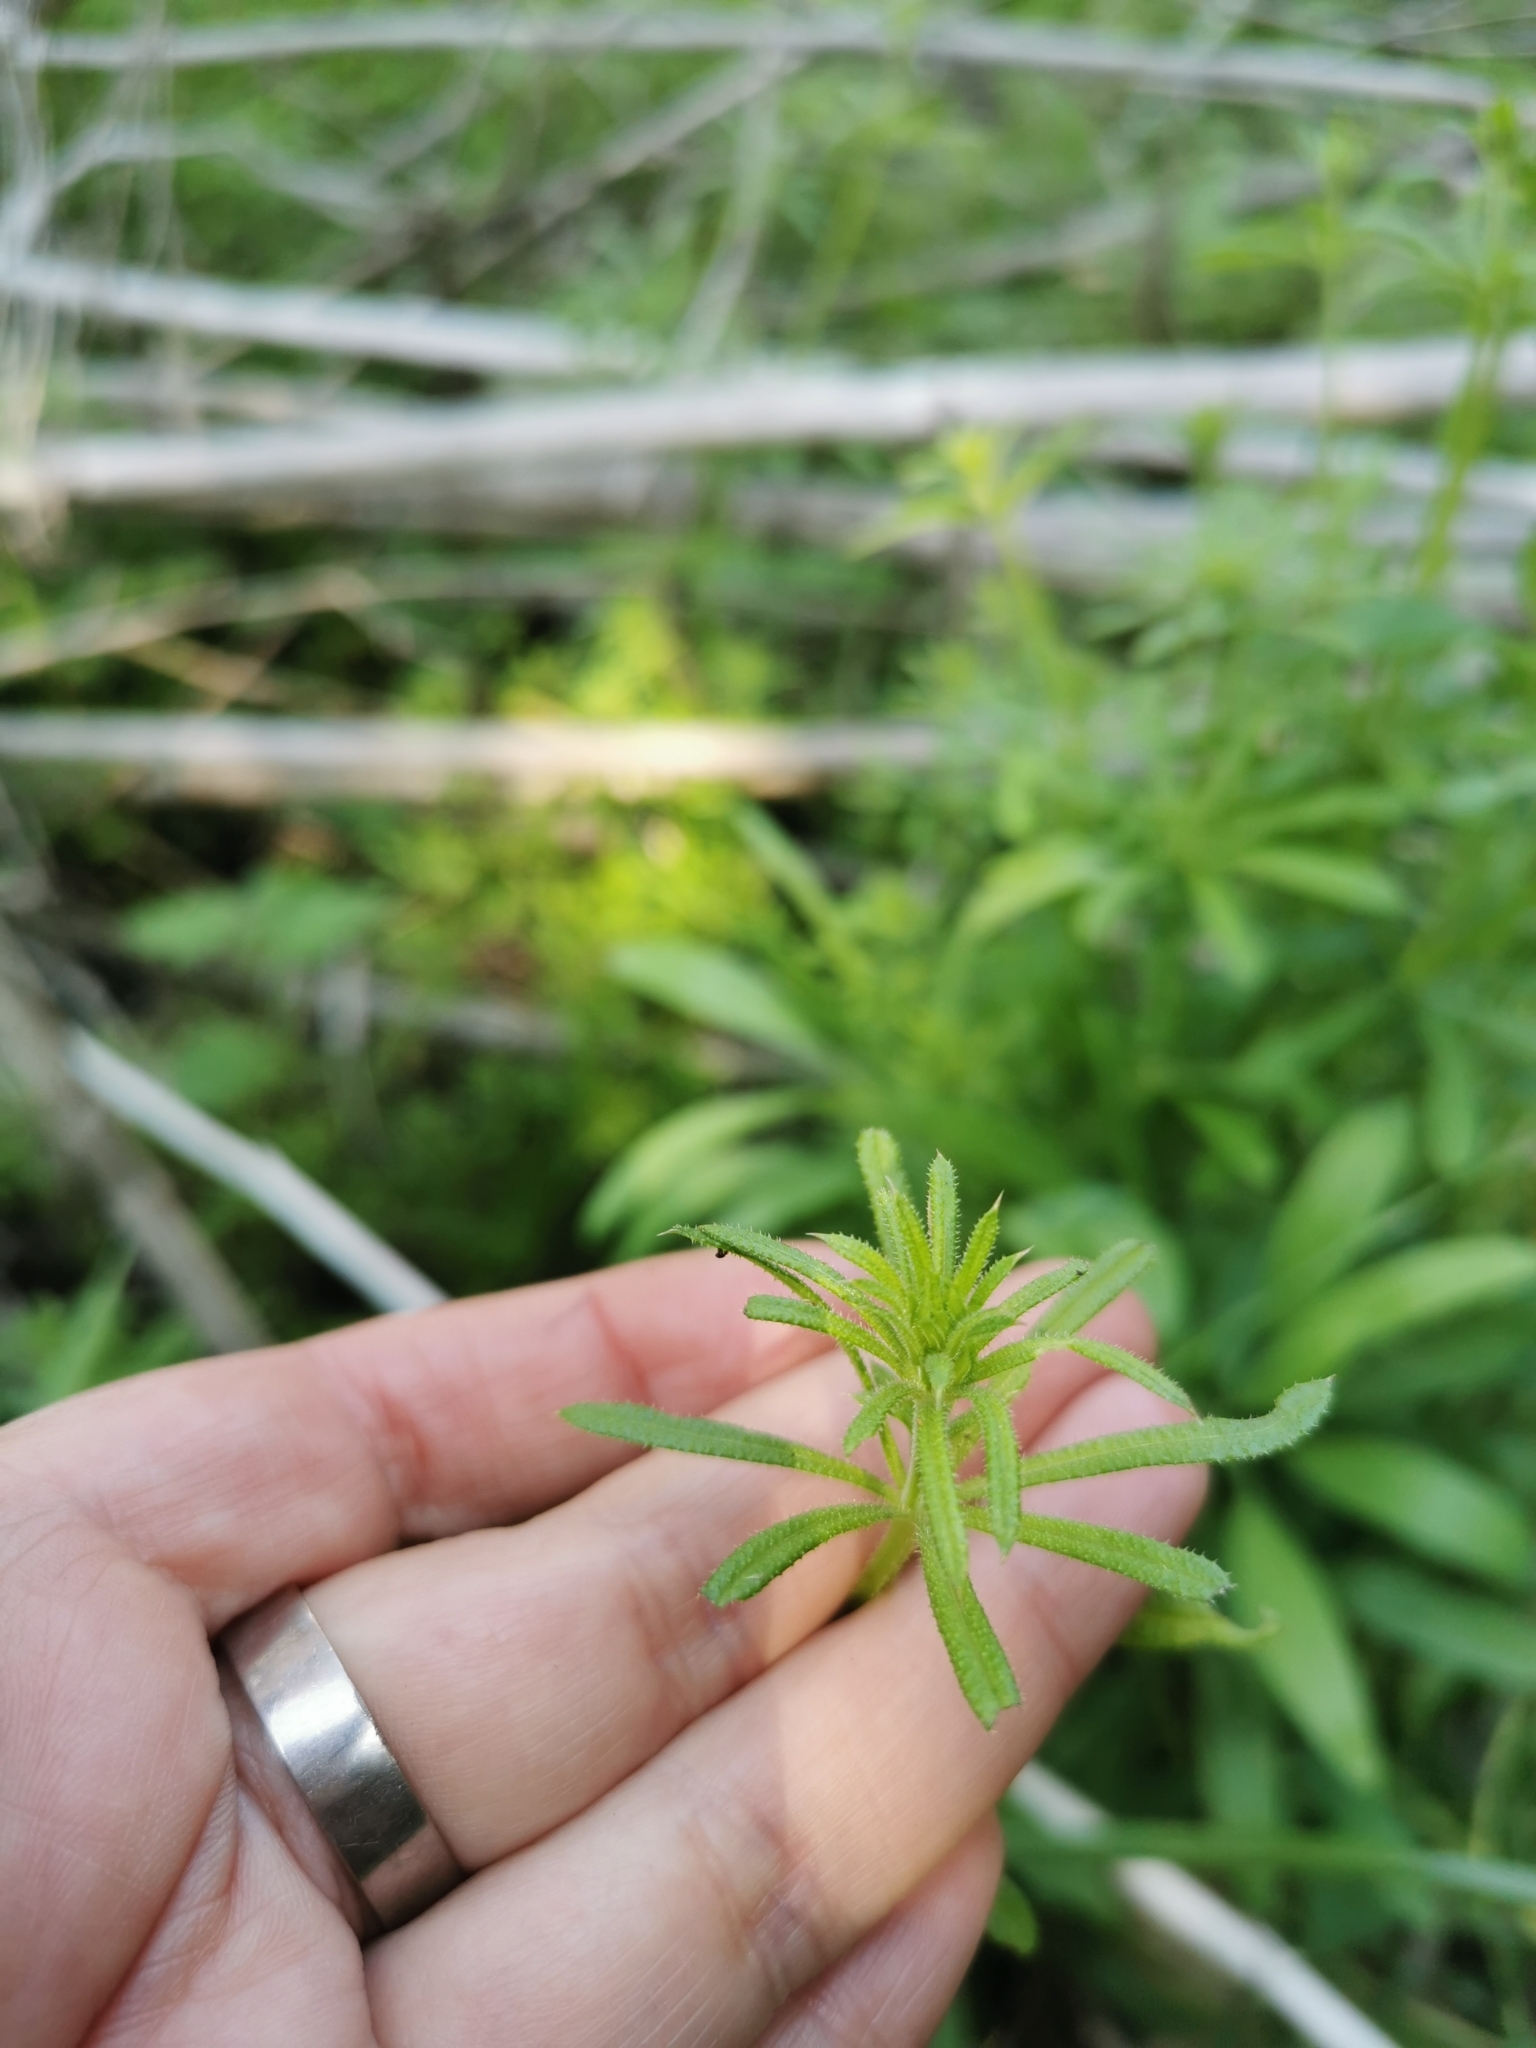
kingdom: Plantae
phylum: Tracheophyta
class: Magnoliopsida
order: Gentianales
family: Rubiaceae
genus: Galium
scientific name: Galium aparine
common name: Cleavers
